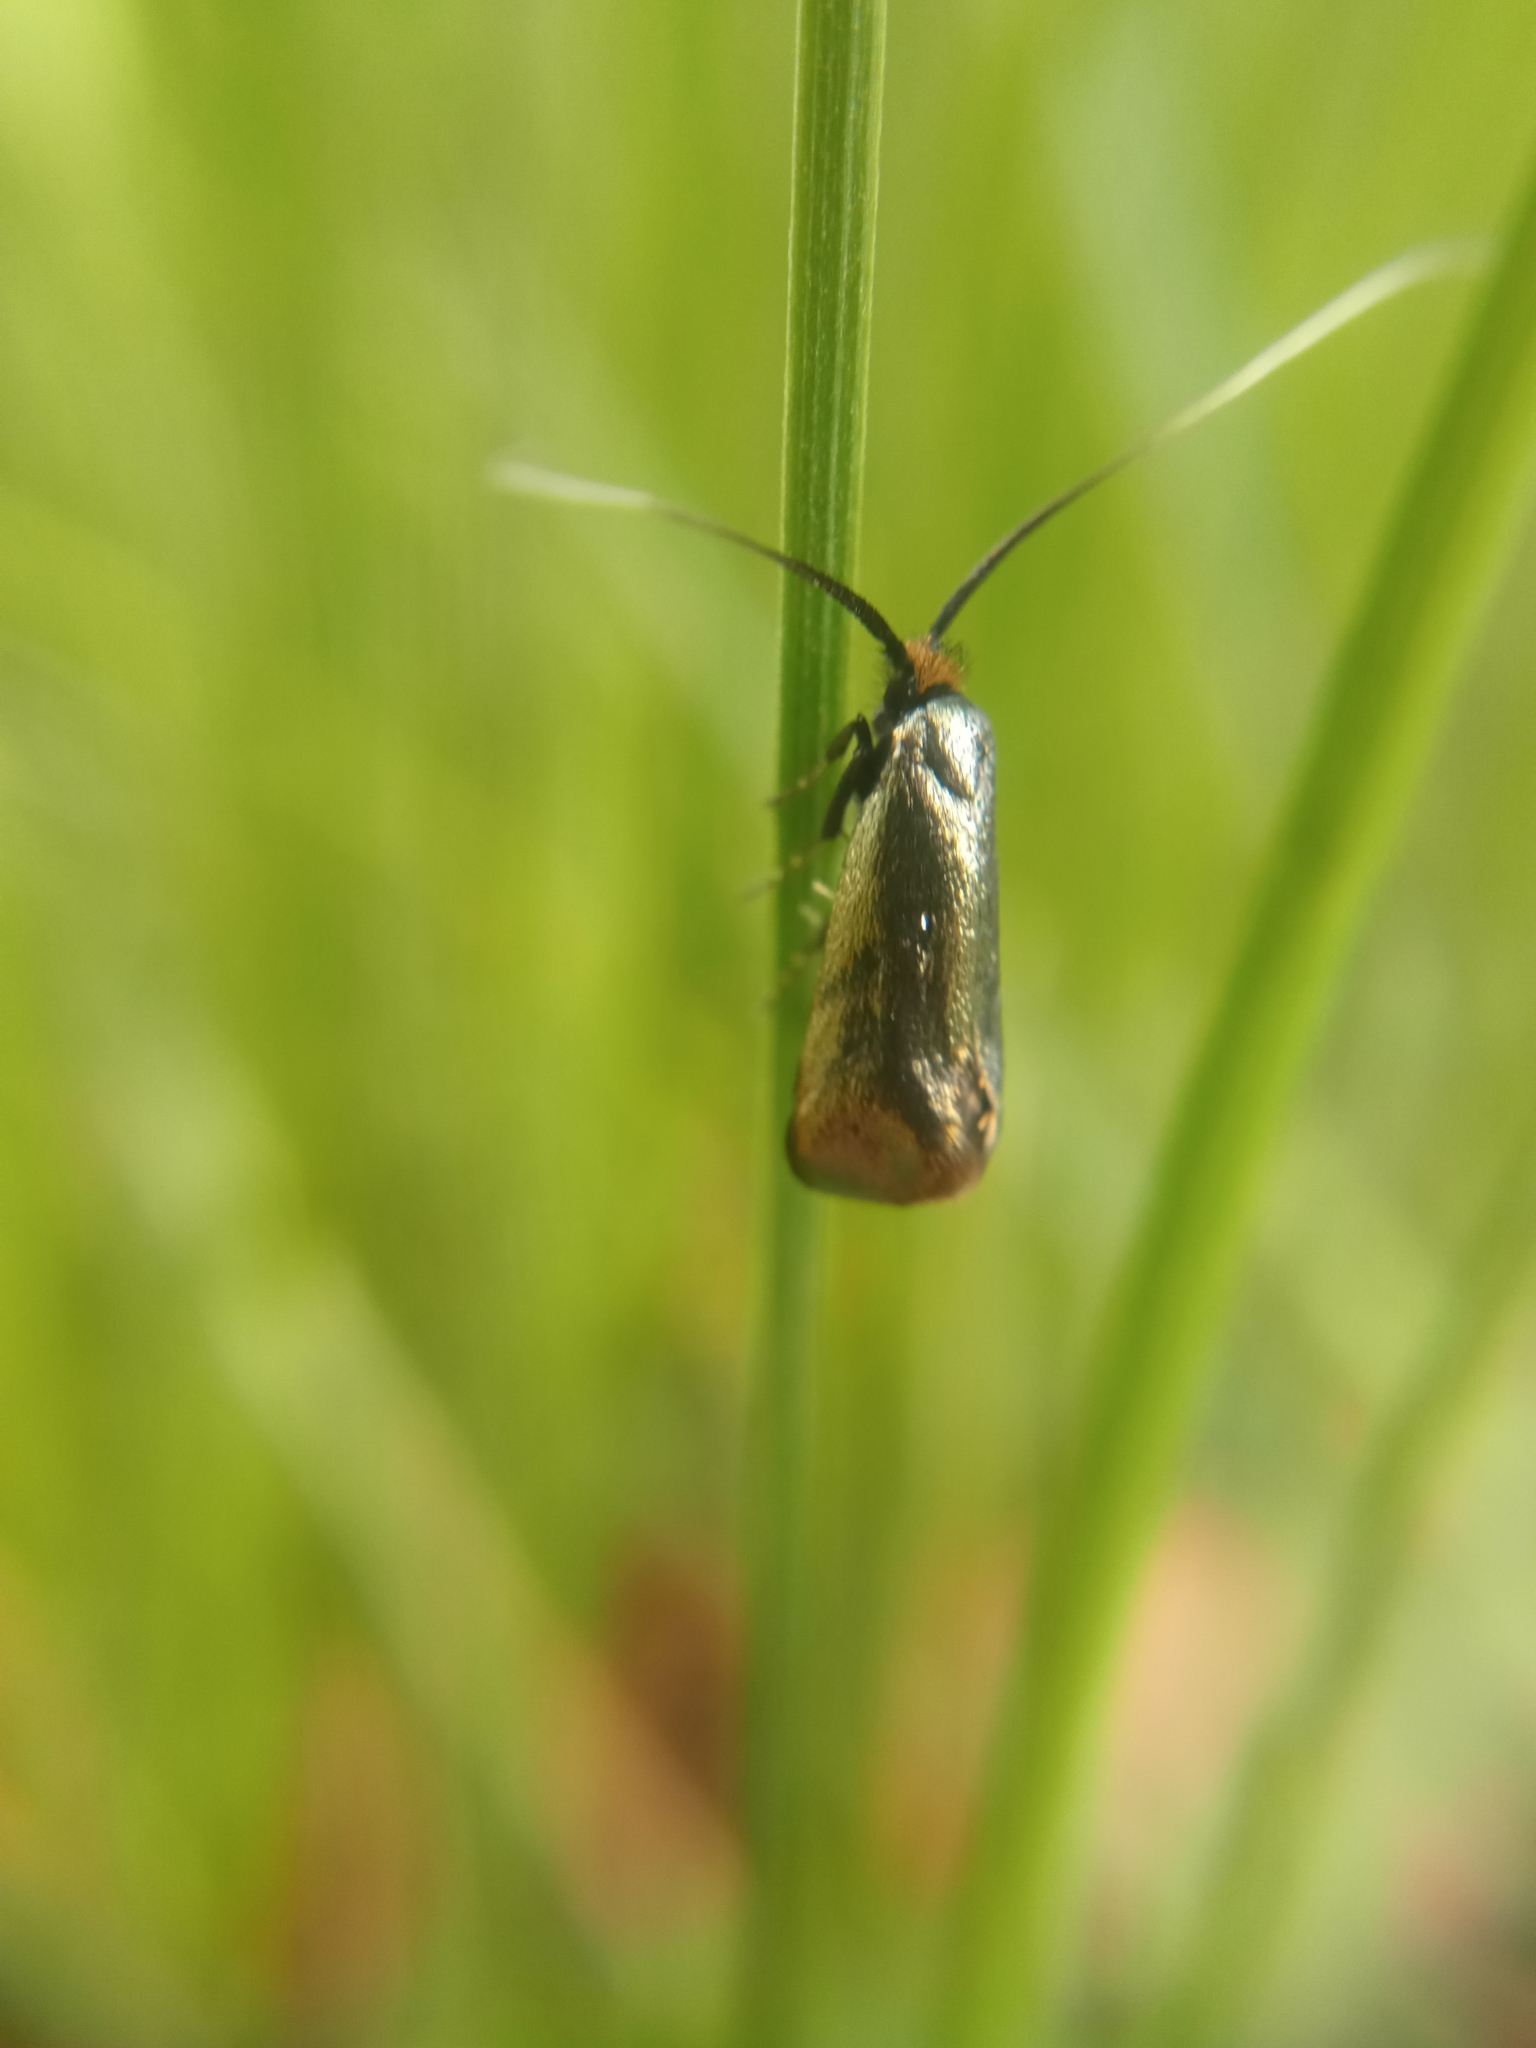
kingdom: Animalia
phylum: Arthropoda
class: Insecta
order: Lepidoptera
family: Adelidae
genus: Adela
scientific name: Adela viridella
